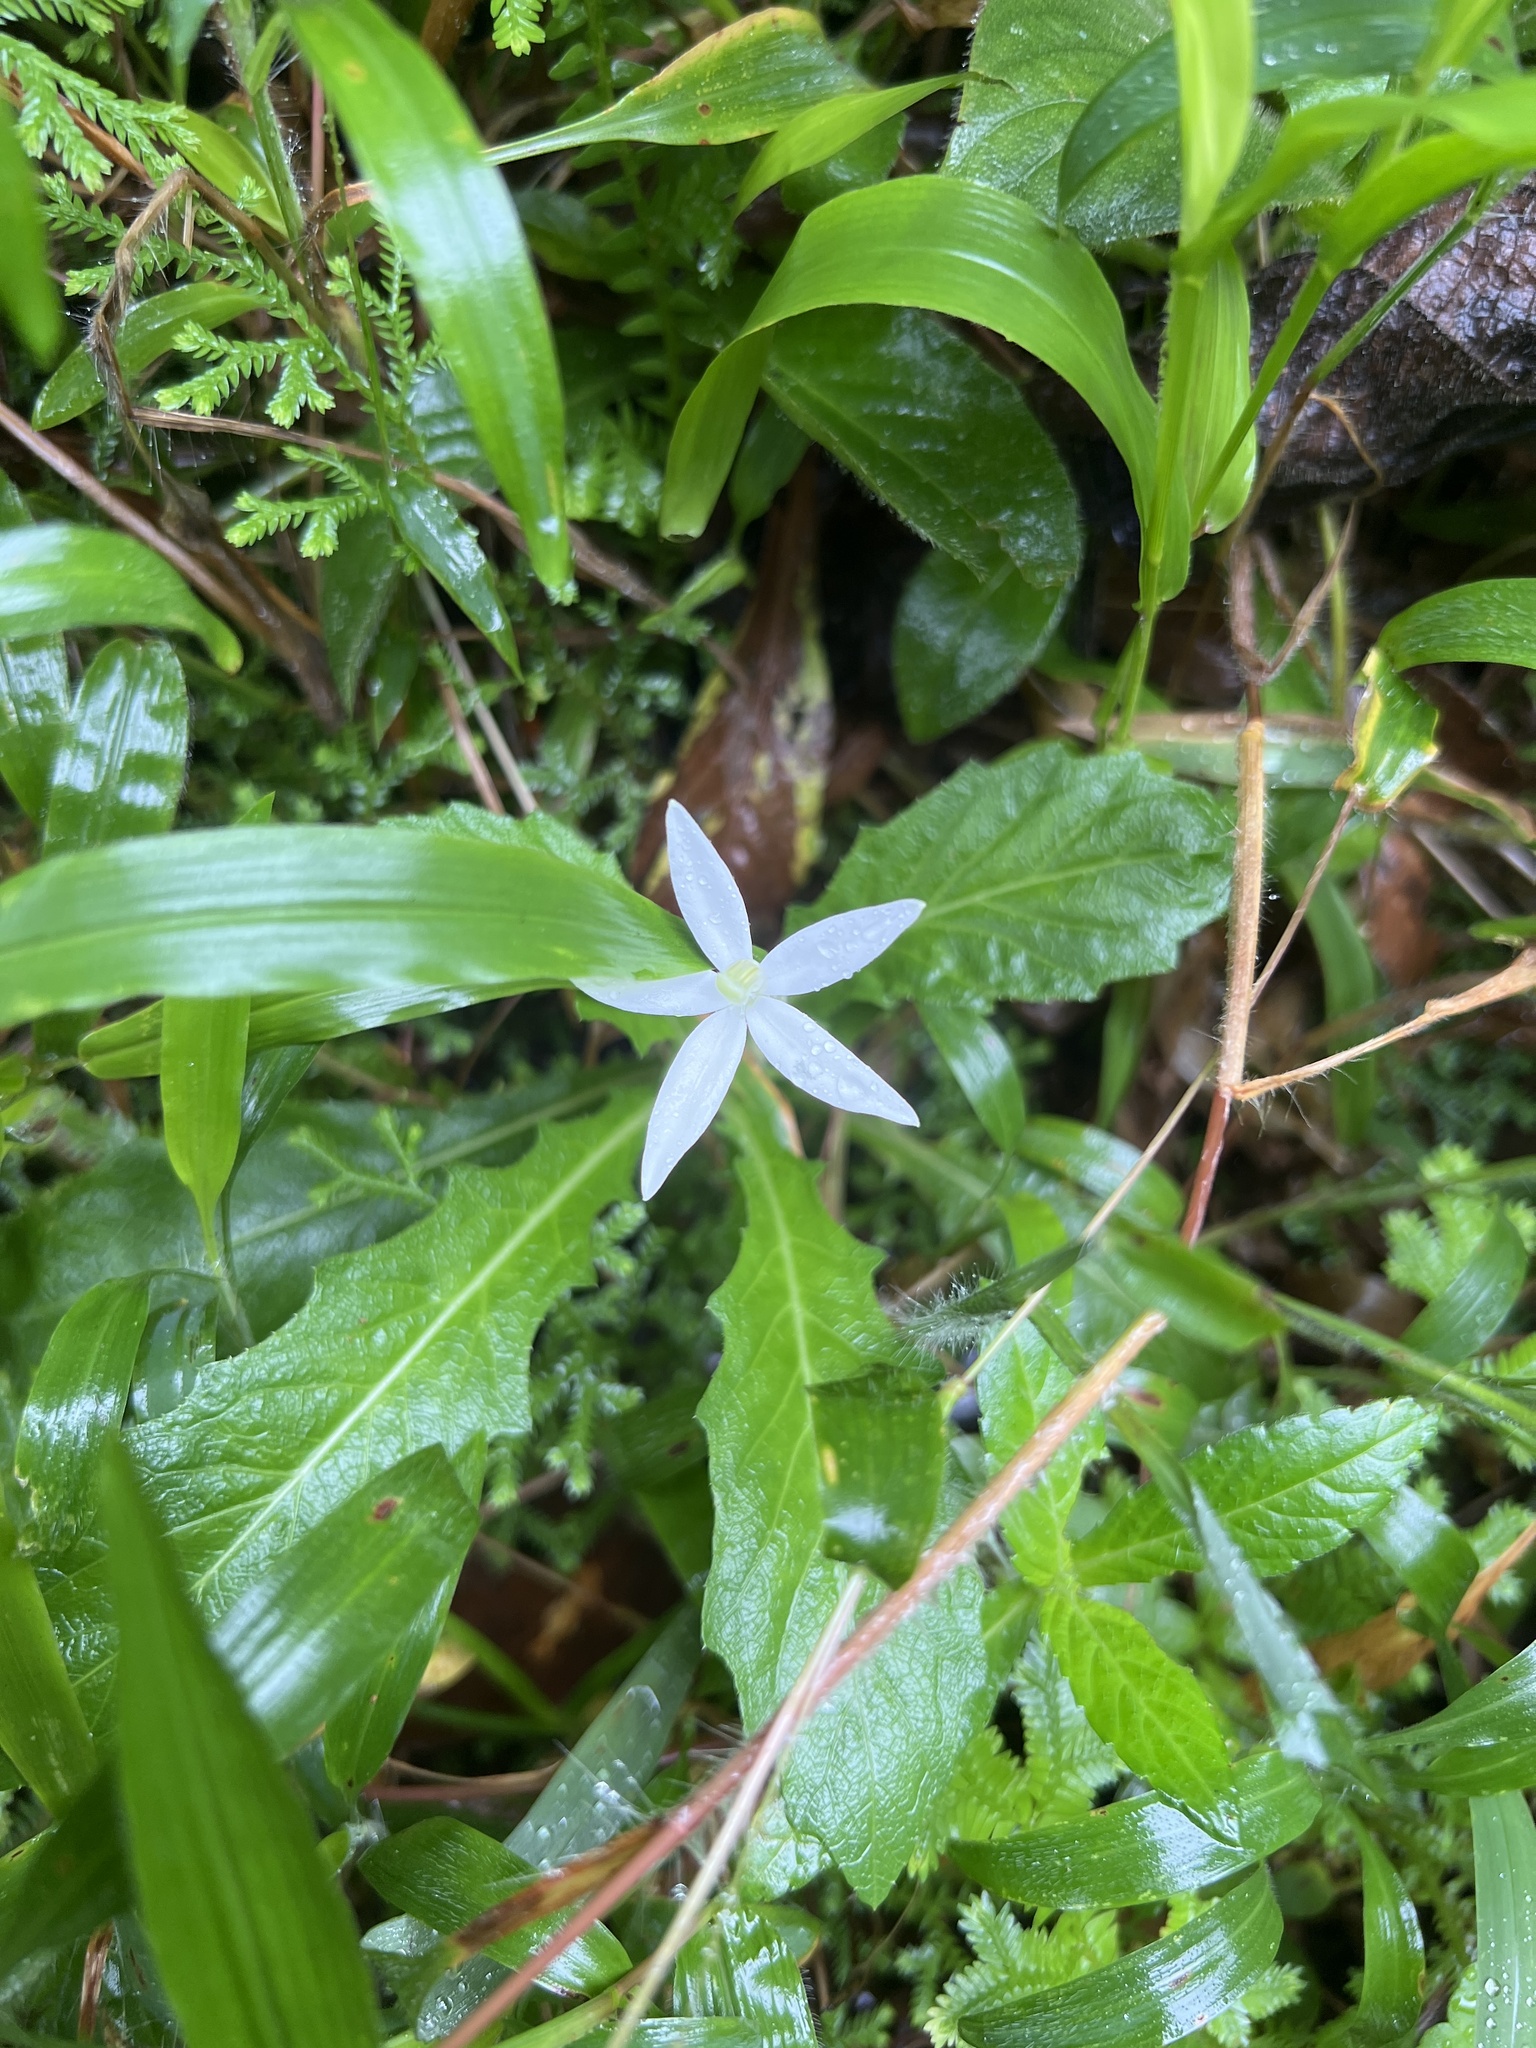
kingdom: Plantae
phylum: Tracheophyta
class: Magnoliopsida
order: Asterales
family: Campanulaceae
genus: Hippobroma
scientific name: Hippobroma longiflora
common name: Madamfate
